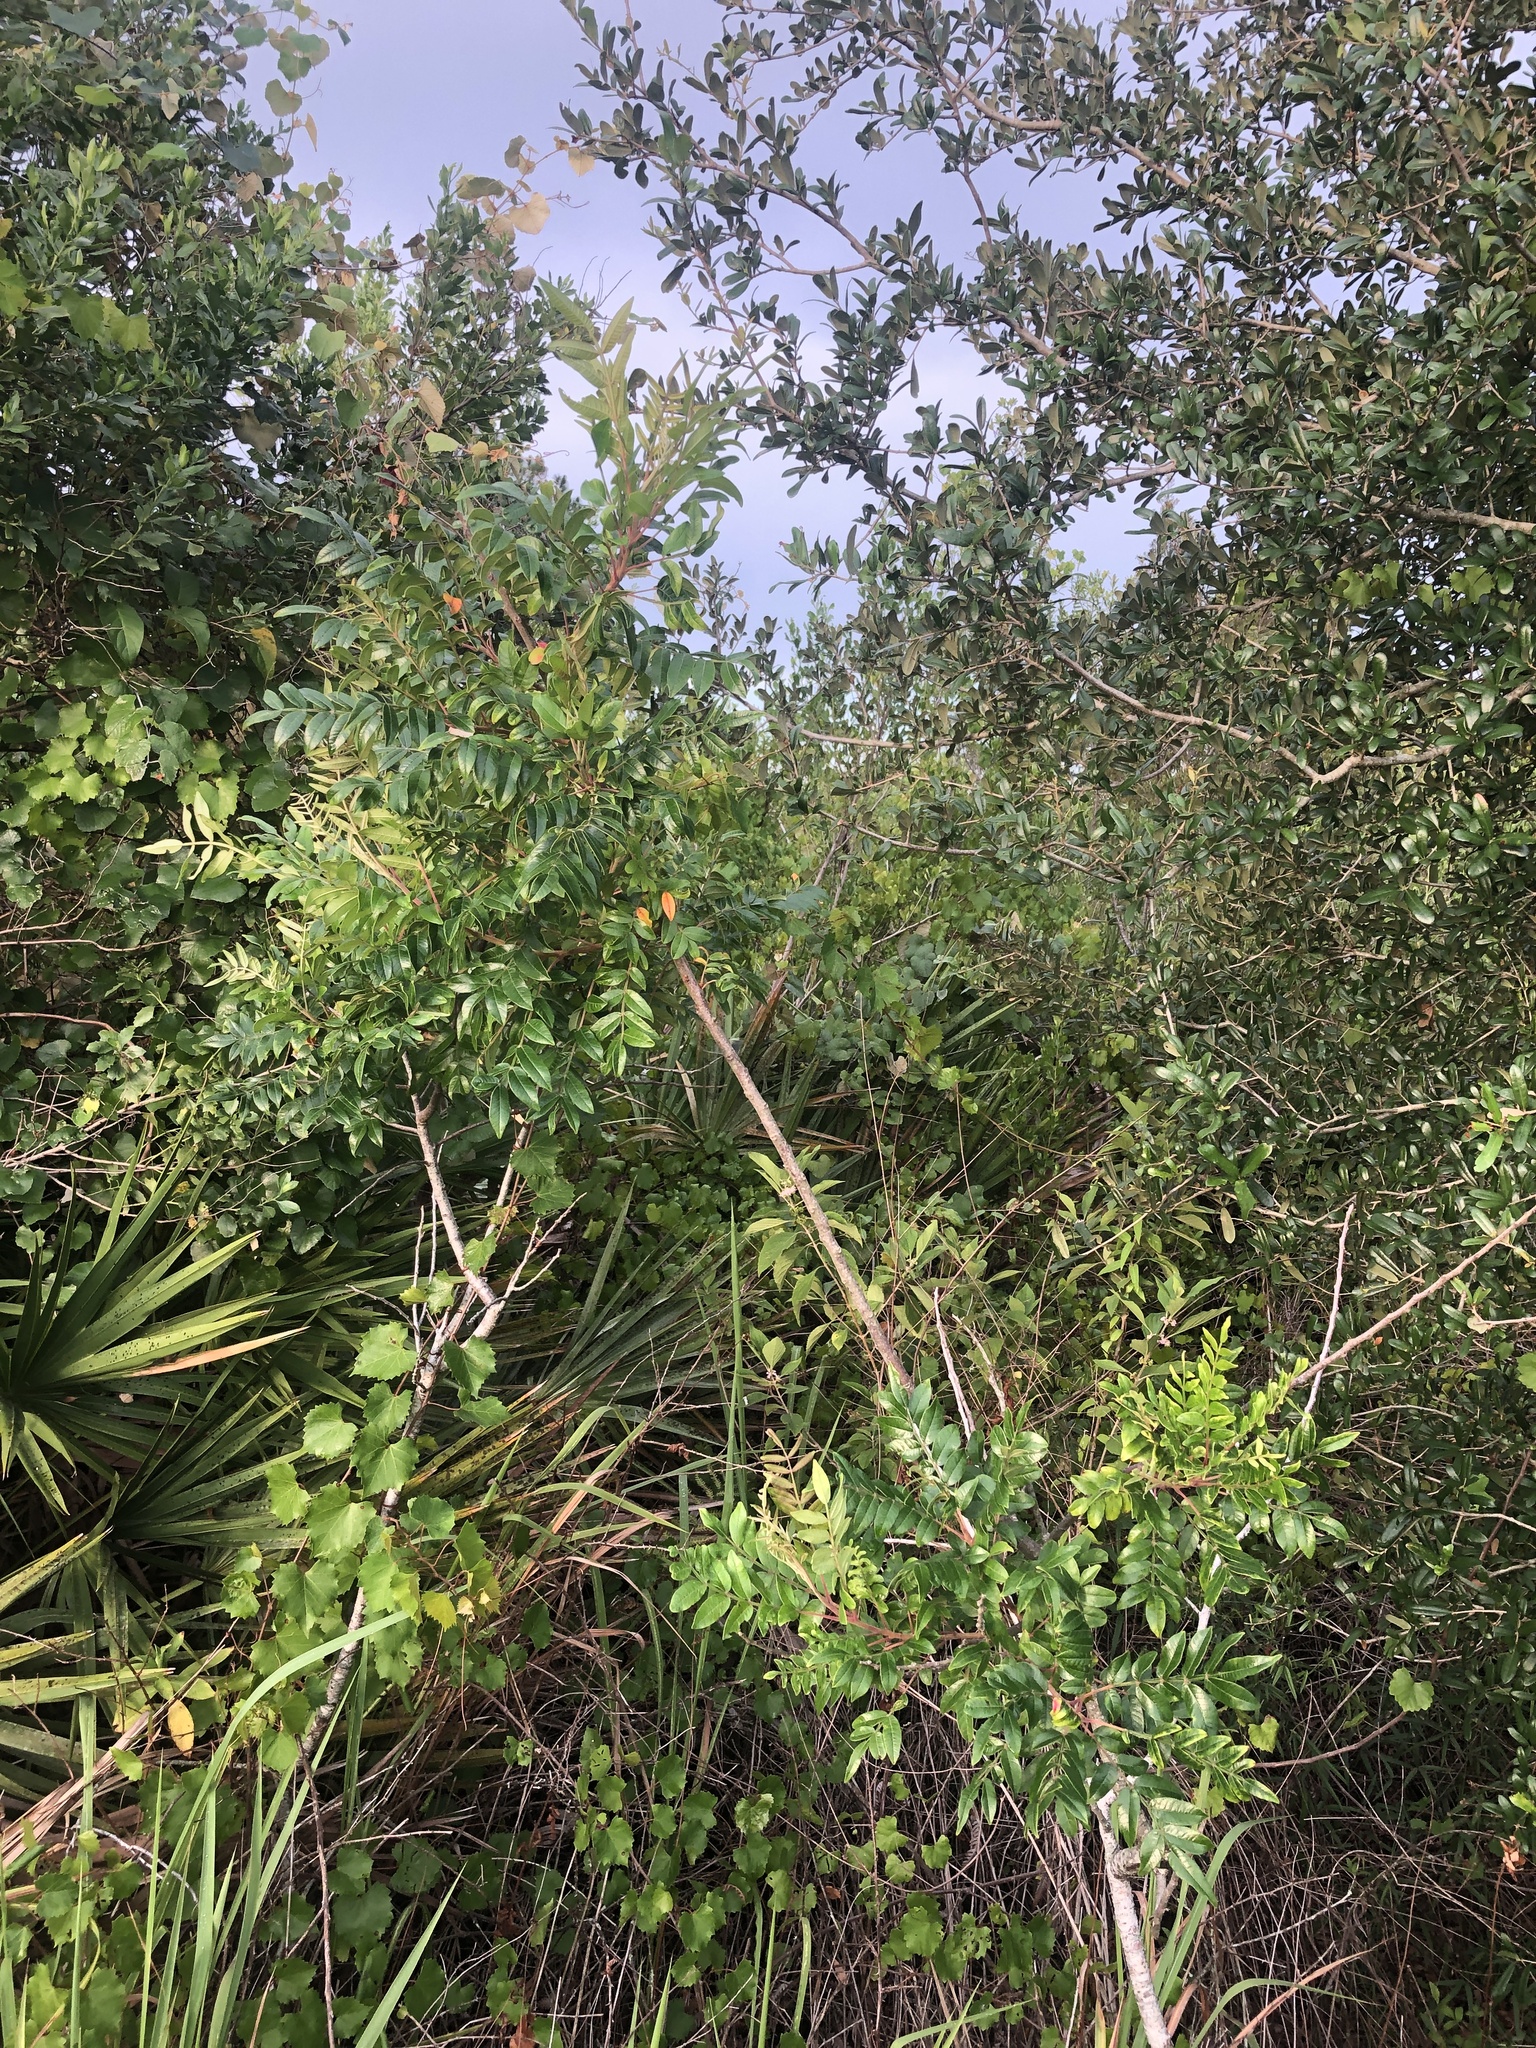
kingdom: Plantae
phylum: Tracheophyta
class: Magnoliopsida
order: Sapindales
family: Anacardiaceae
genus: Rhus
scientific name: Rhus copallina
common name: Shining sumac
